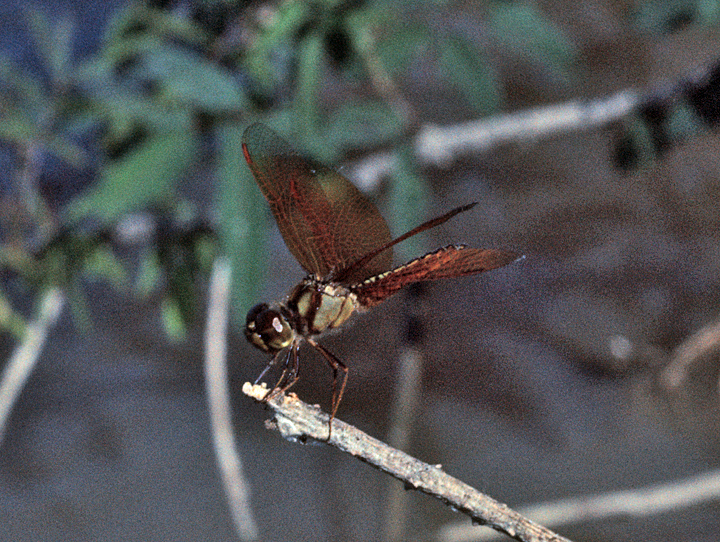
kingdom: Animalia
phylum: Arthropoda
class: Insecta
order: Odonata
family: Libellulidae
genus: Perithemis
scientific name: Perithemis bella
